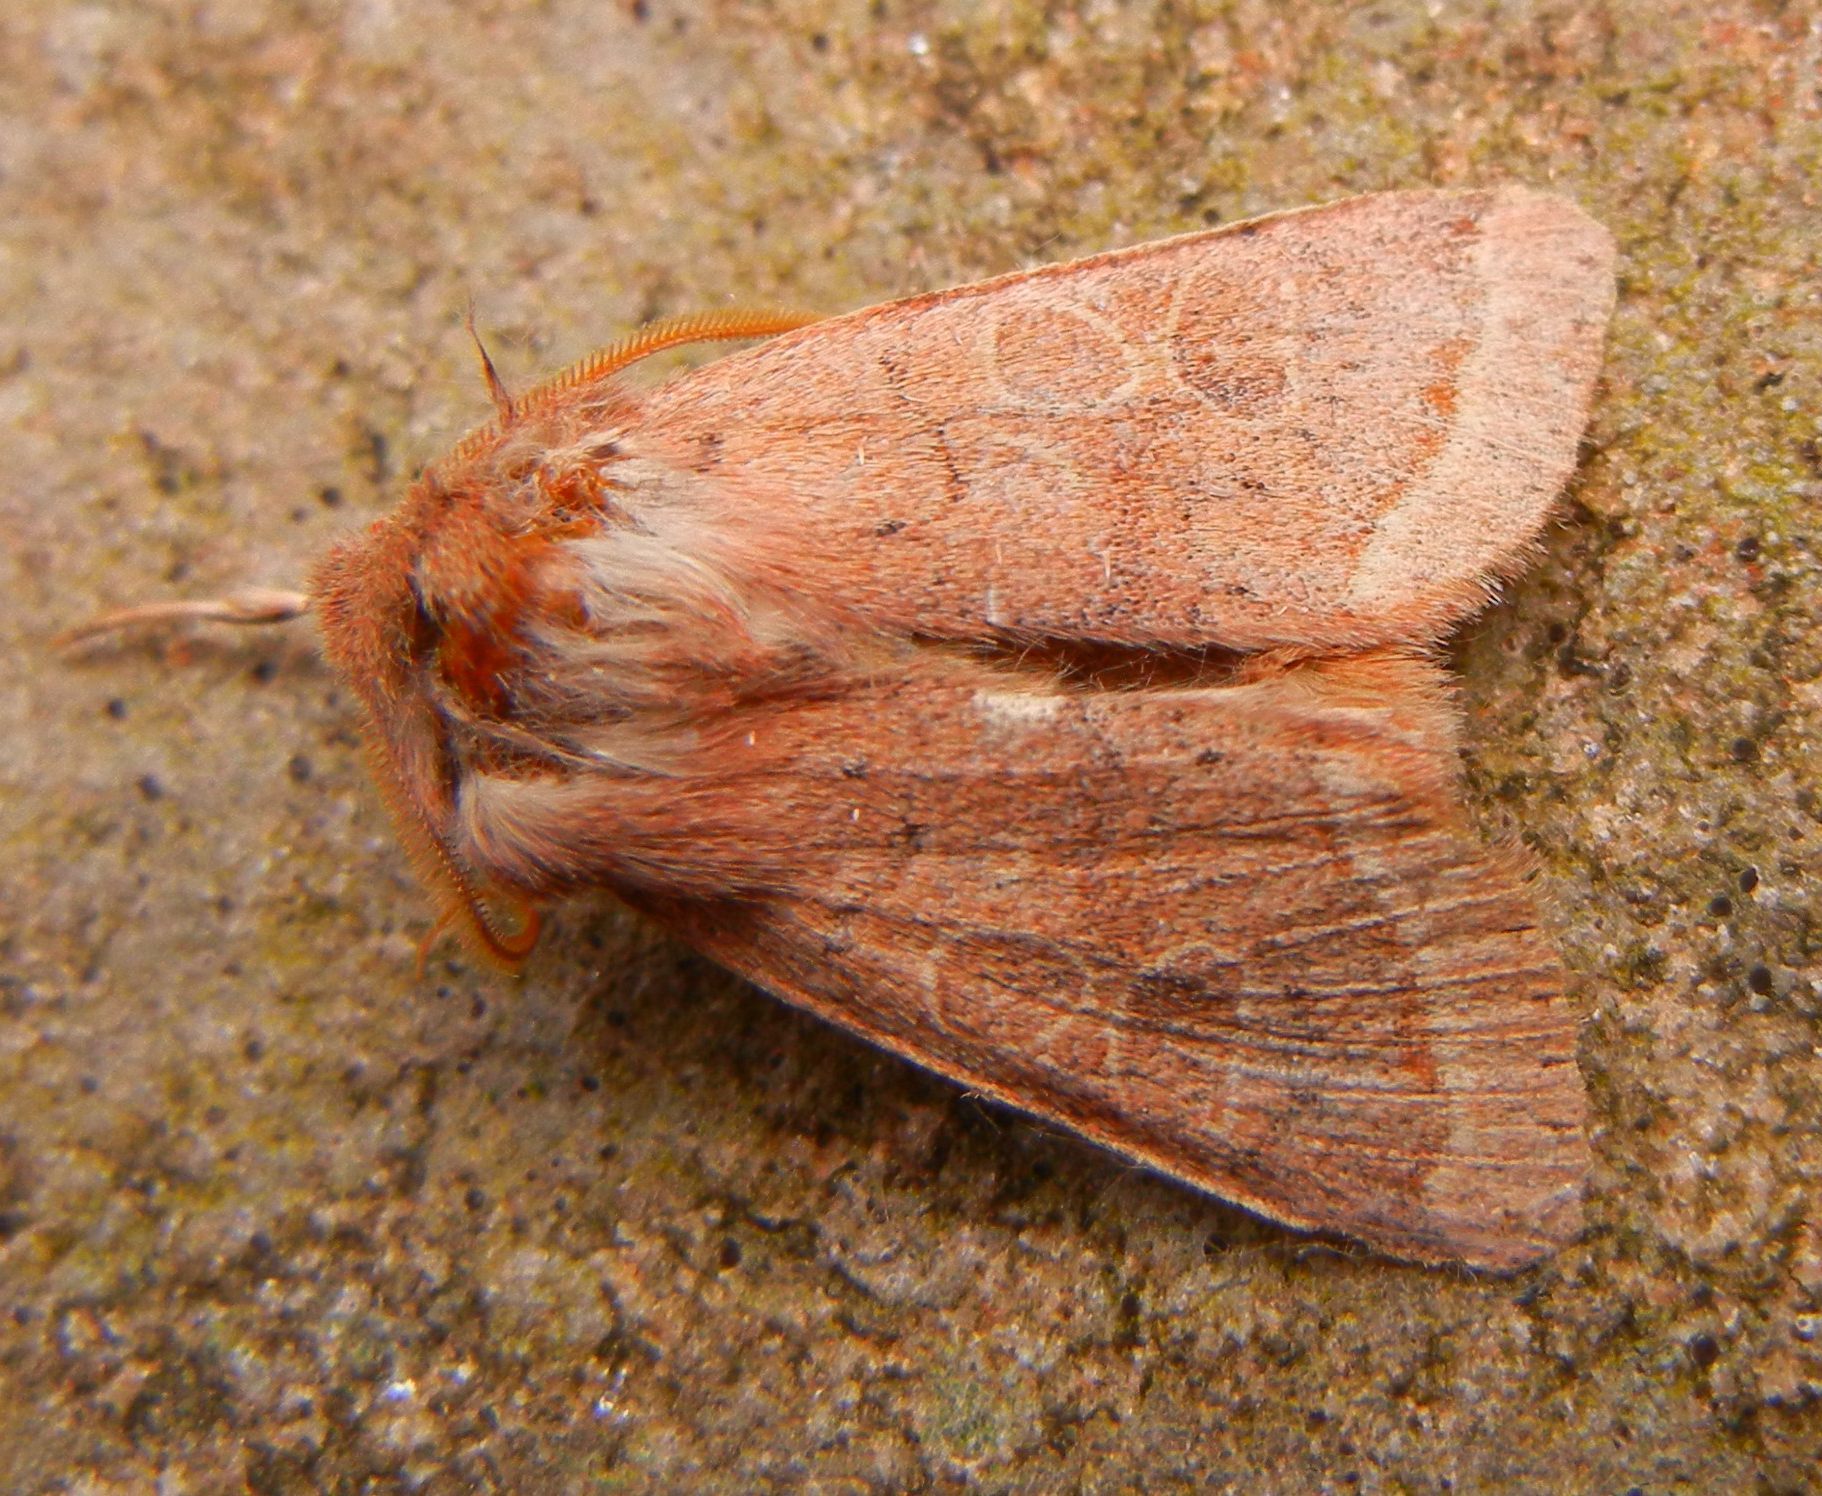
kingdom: Animalia
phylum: Arthropoda
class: Insecta
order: Lepidoptera
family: Noctuidae
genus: Orthosia
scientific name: Orthosia cerasi
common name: Common quaker
